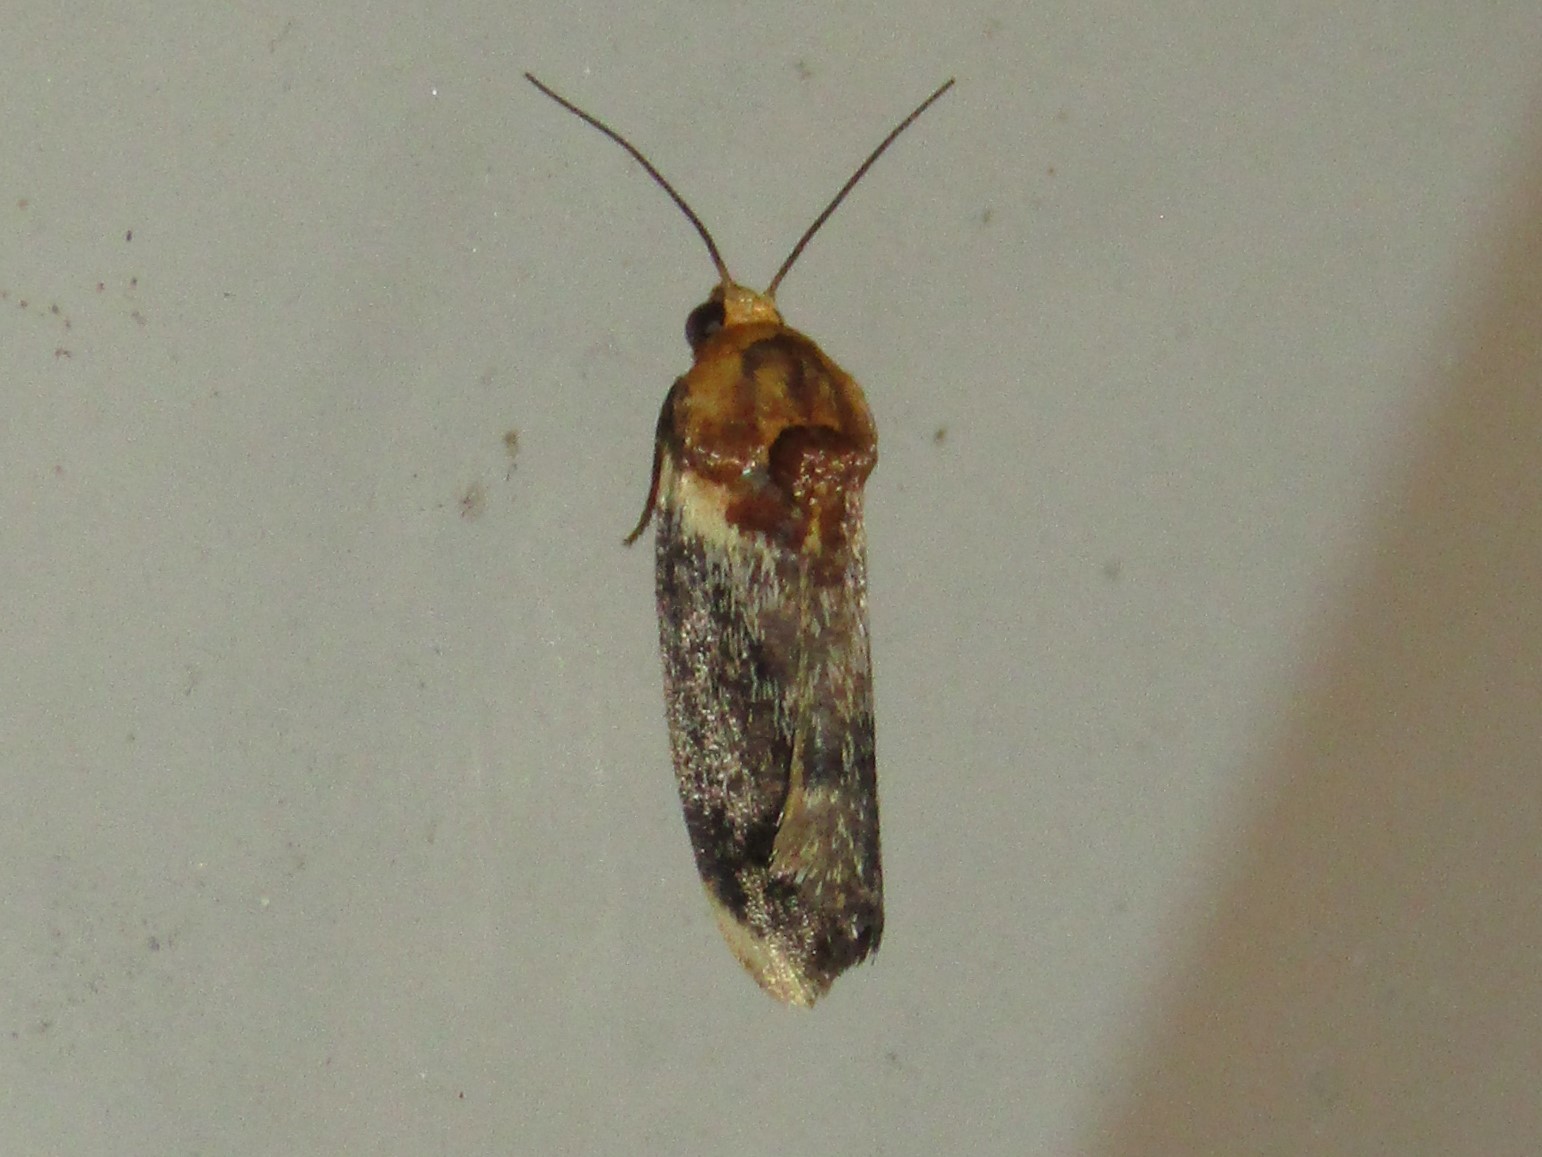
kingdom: Animalia
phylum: Arthropoda
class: Insecta
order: Lepidoptera
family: Noctuidae
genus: Spragueia
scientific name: Spragueia apicalis
